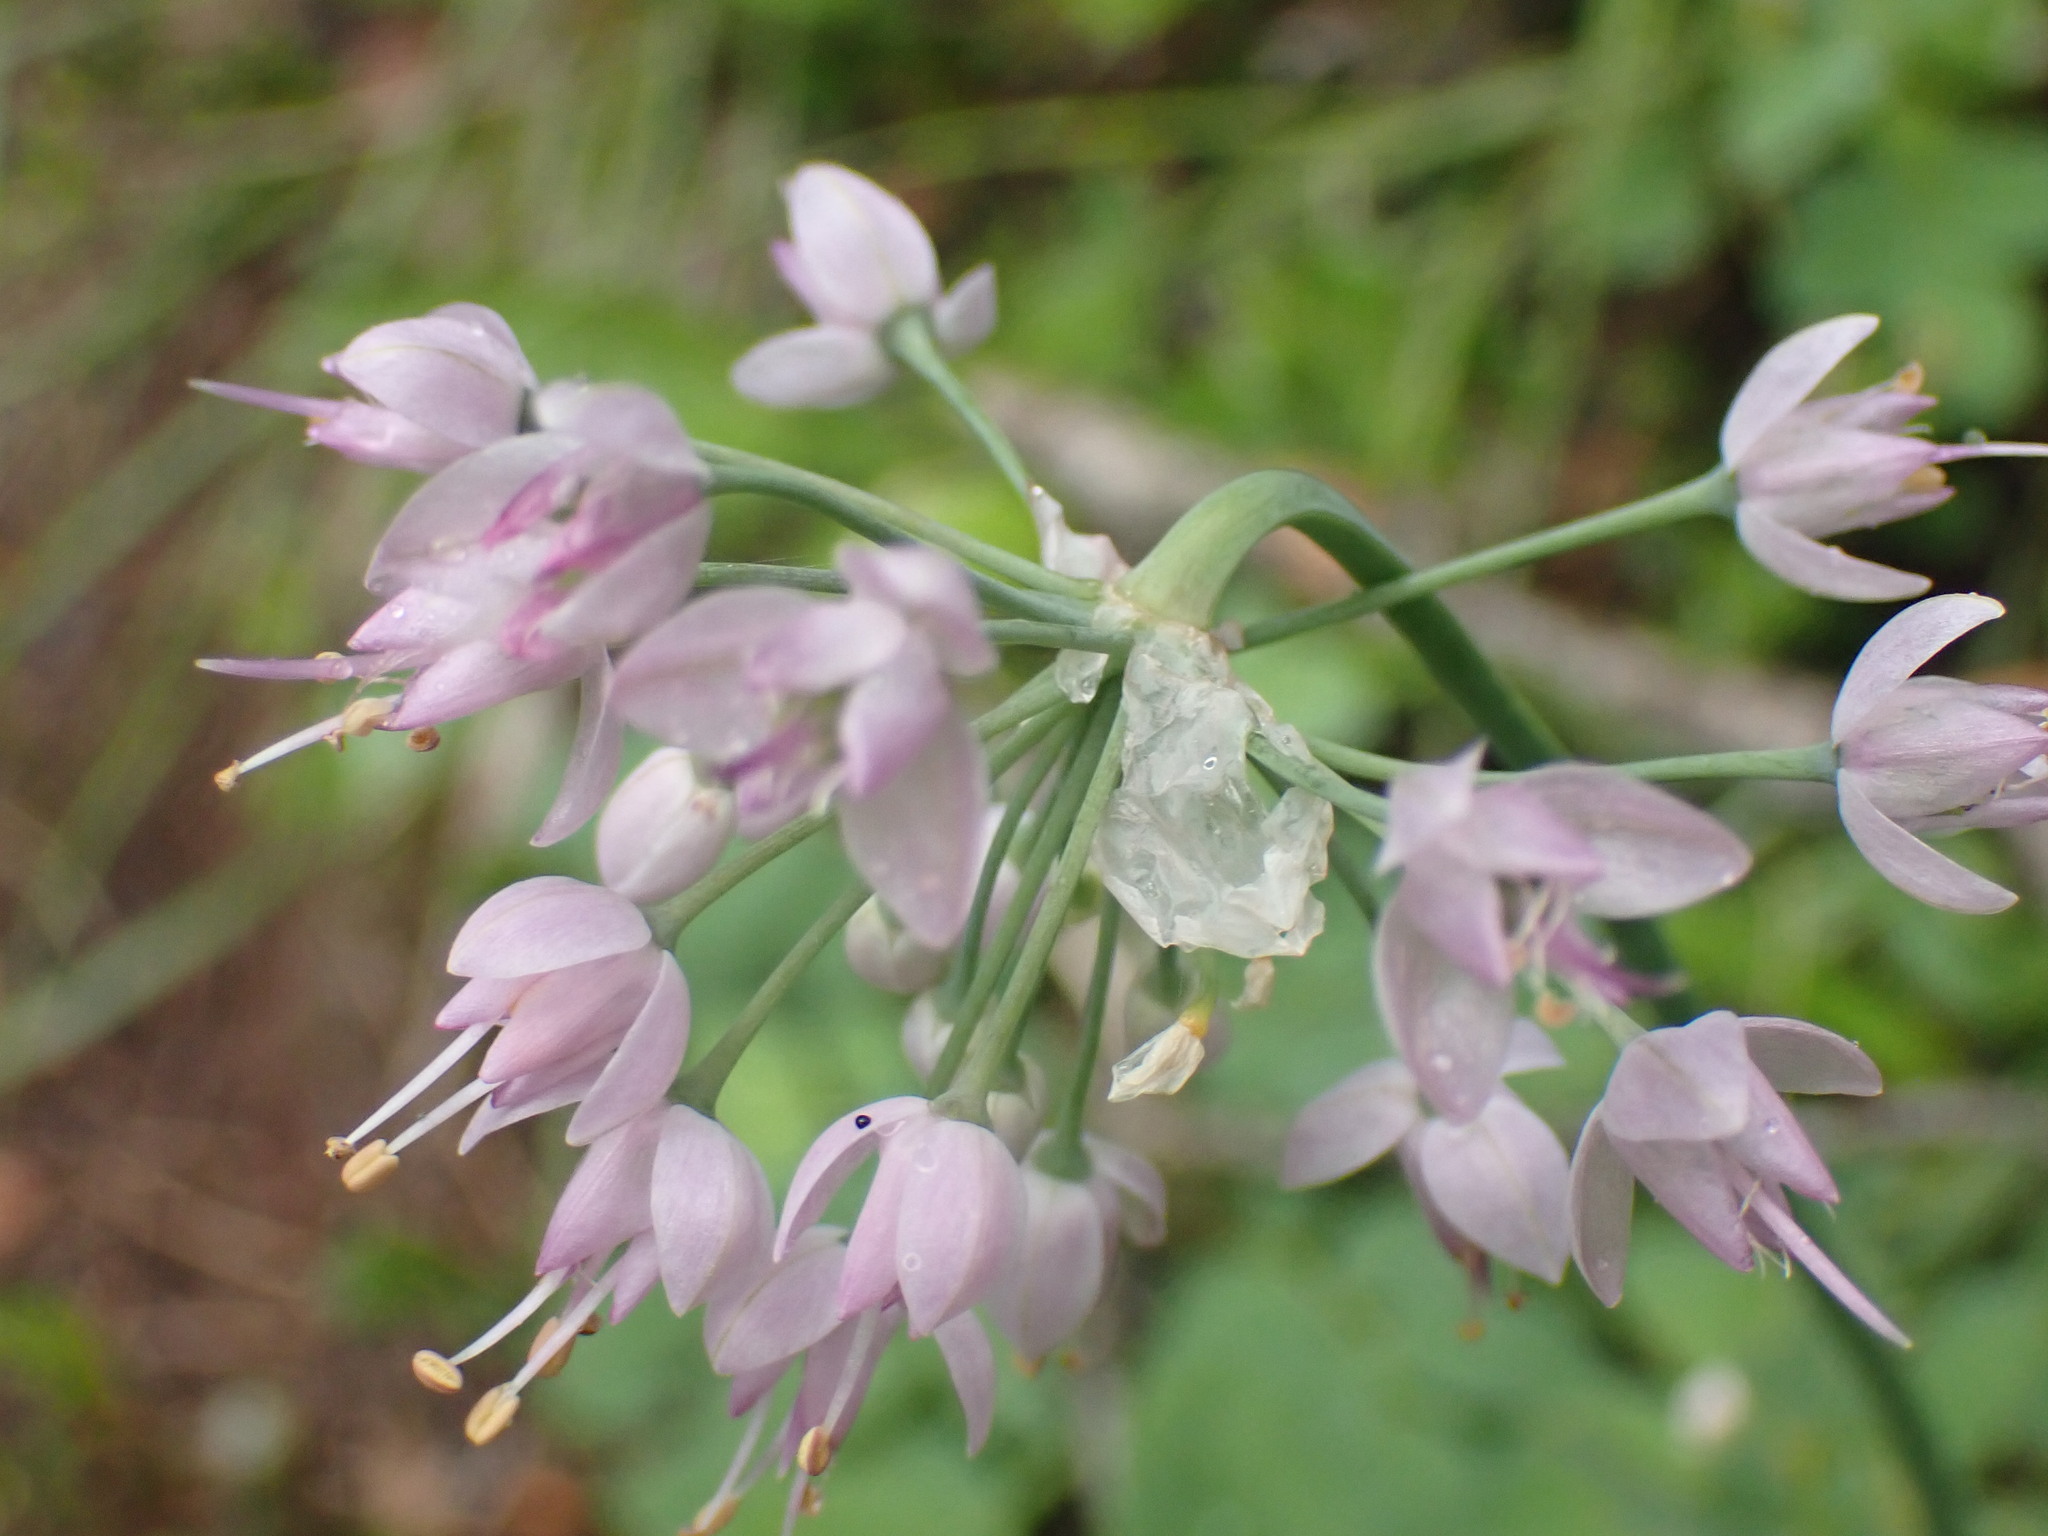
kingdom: Plantae
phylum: Tracheophyta
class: Liliopsida
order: Asparagales
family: Amaryllidaceae
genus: Allium
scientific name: Allium cernuum
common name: Nodding onion
